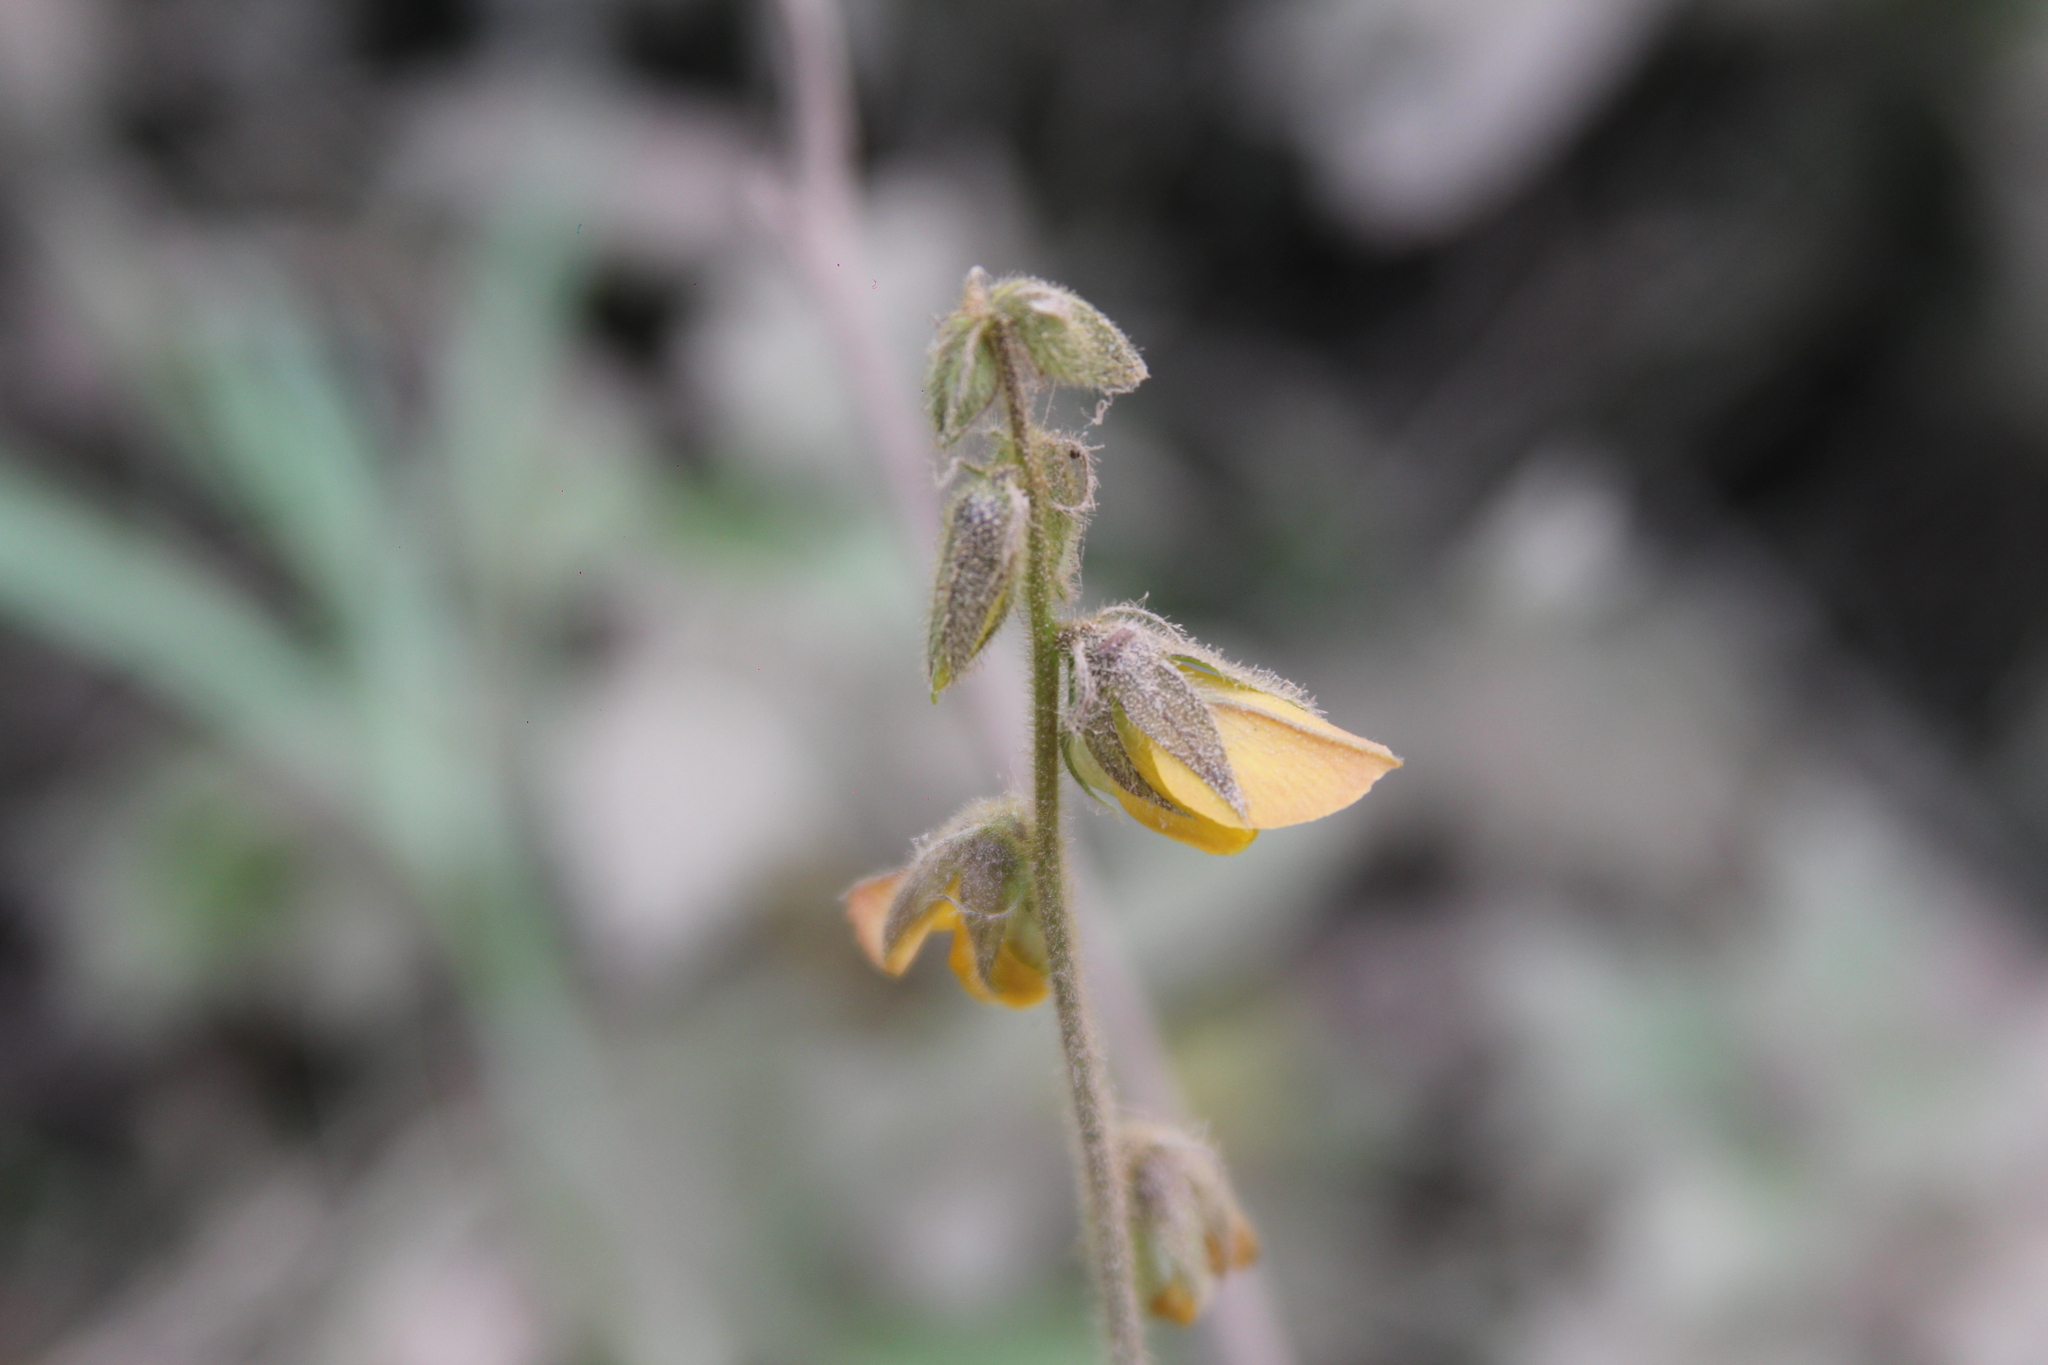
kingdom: Plantae
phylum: Tracheophyta
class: Magnoliopsida
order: Fabales
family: Fabaceae
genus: Crotalaria
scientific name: Crotalaria incana
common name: Shakeshake
